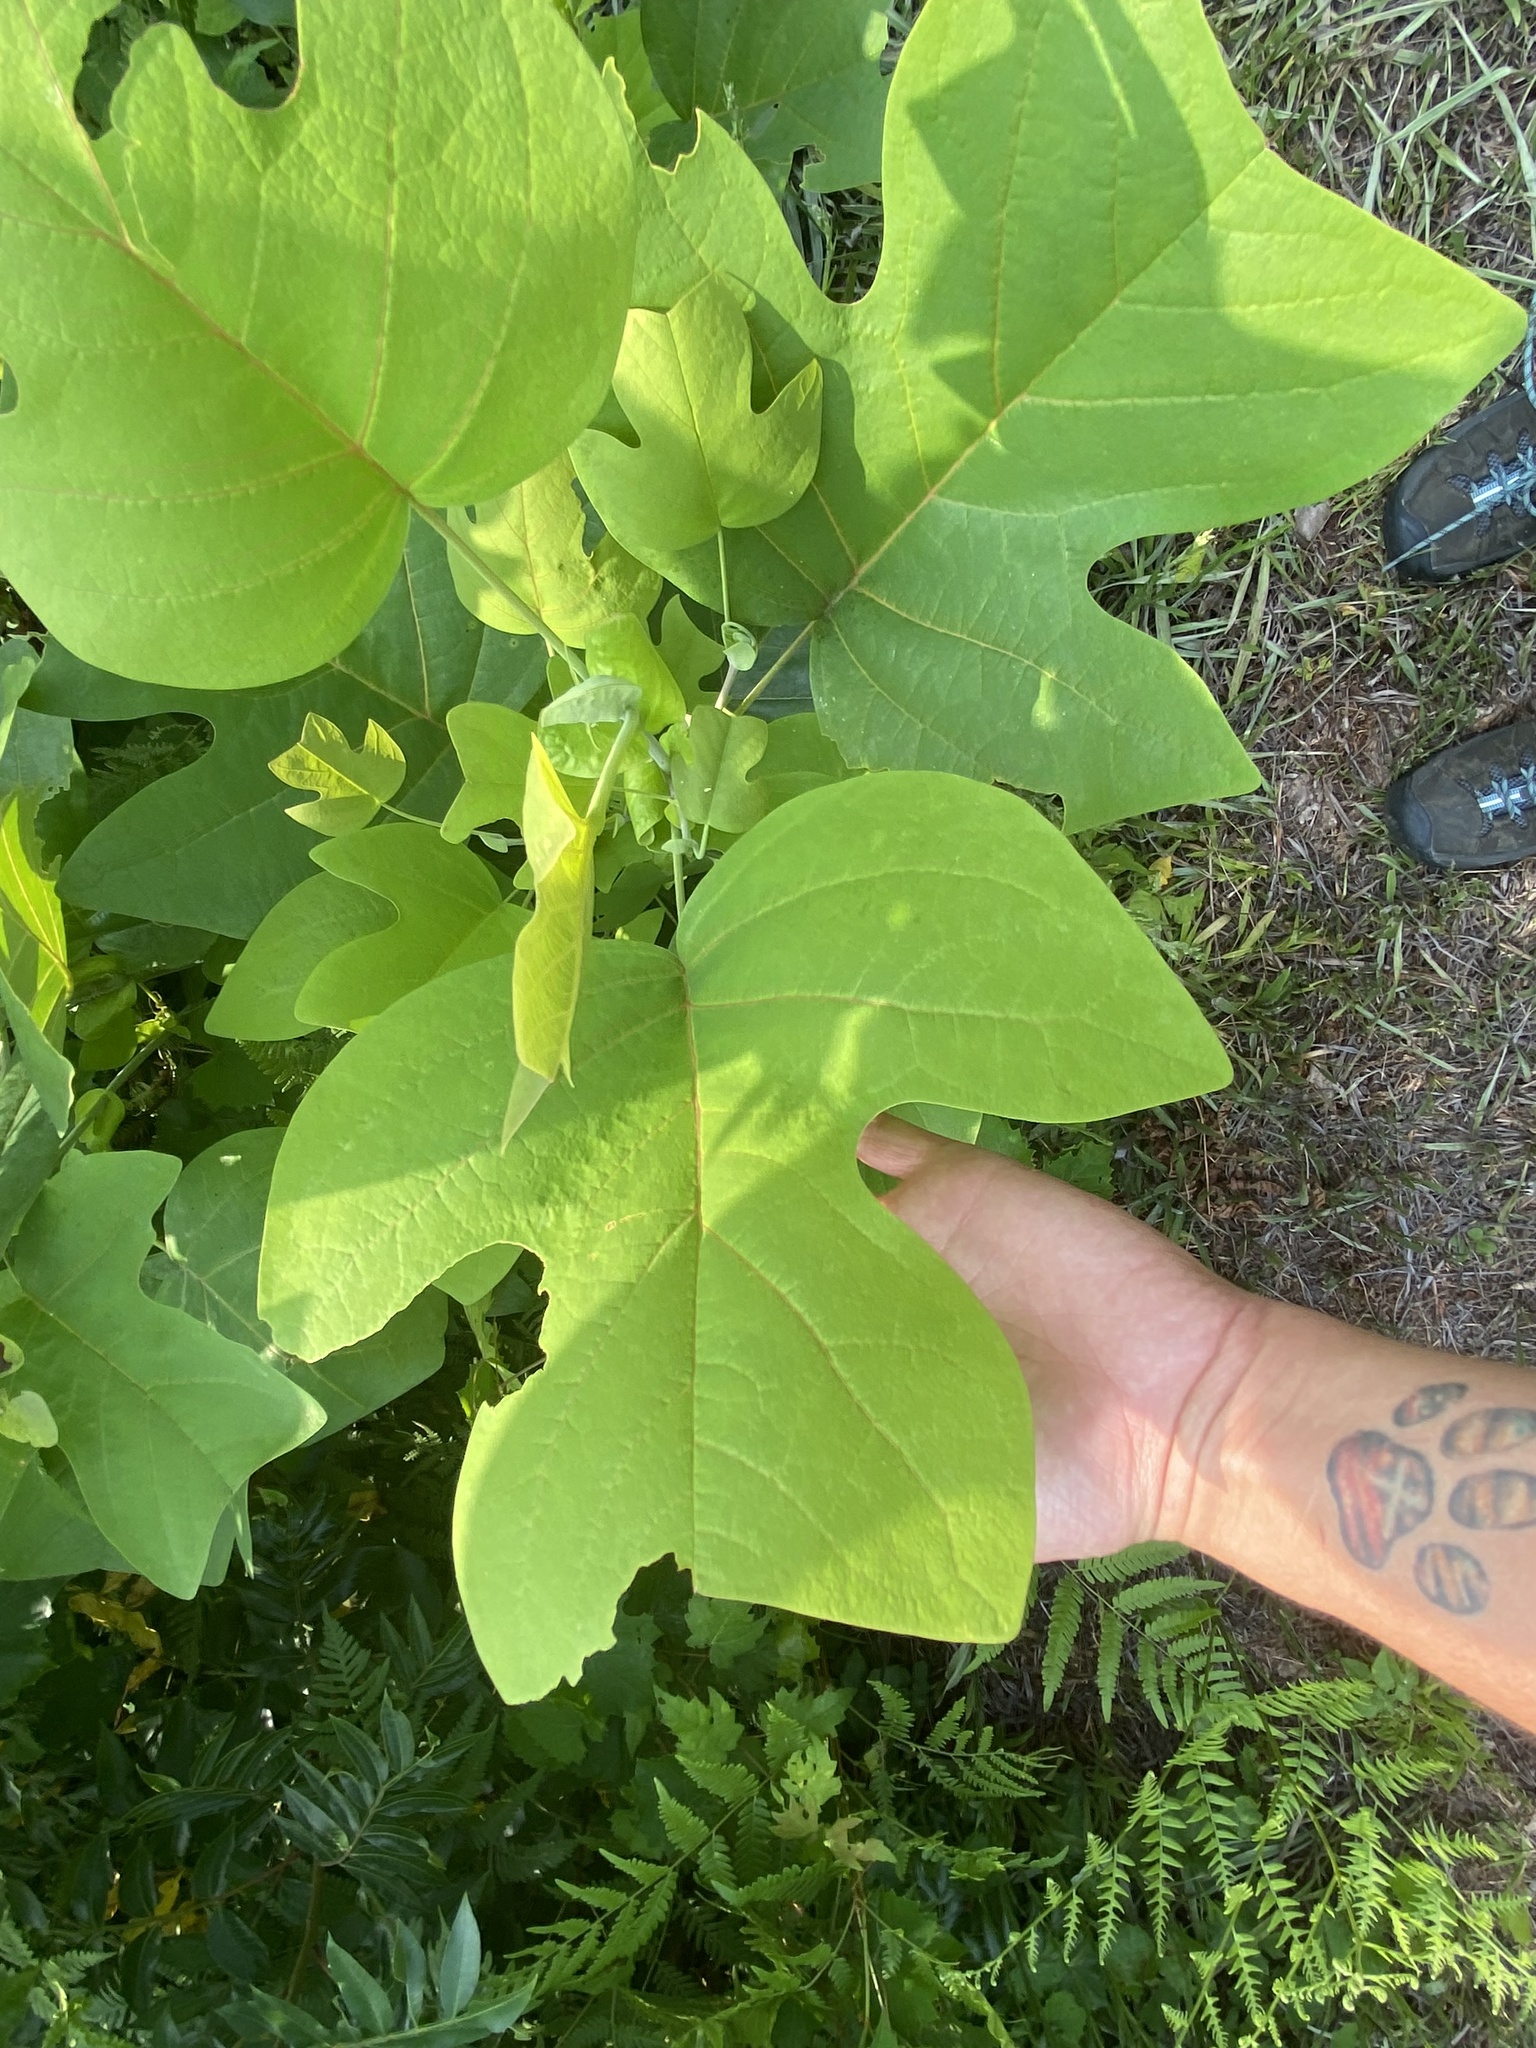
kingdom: Plantae
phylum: Tracheophyta
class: Magnoliopsida
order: Magnoliales
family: Magnoliaceae
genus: Liriodendron
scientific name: Liriodendron tulipifera
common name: Tulip tree
